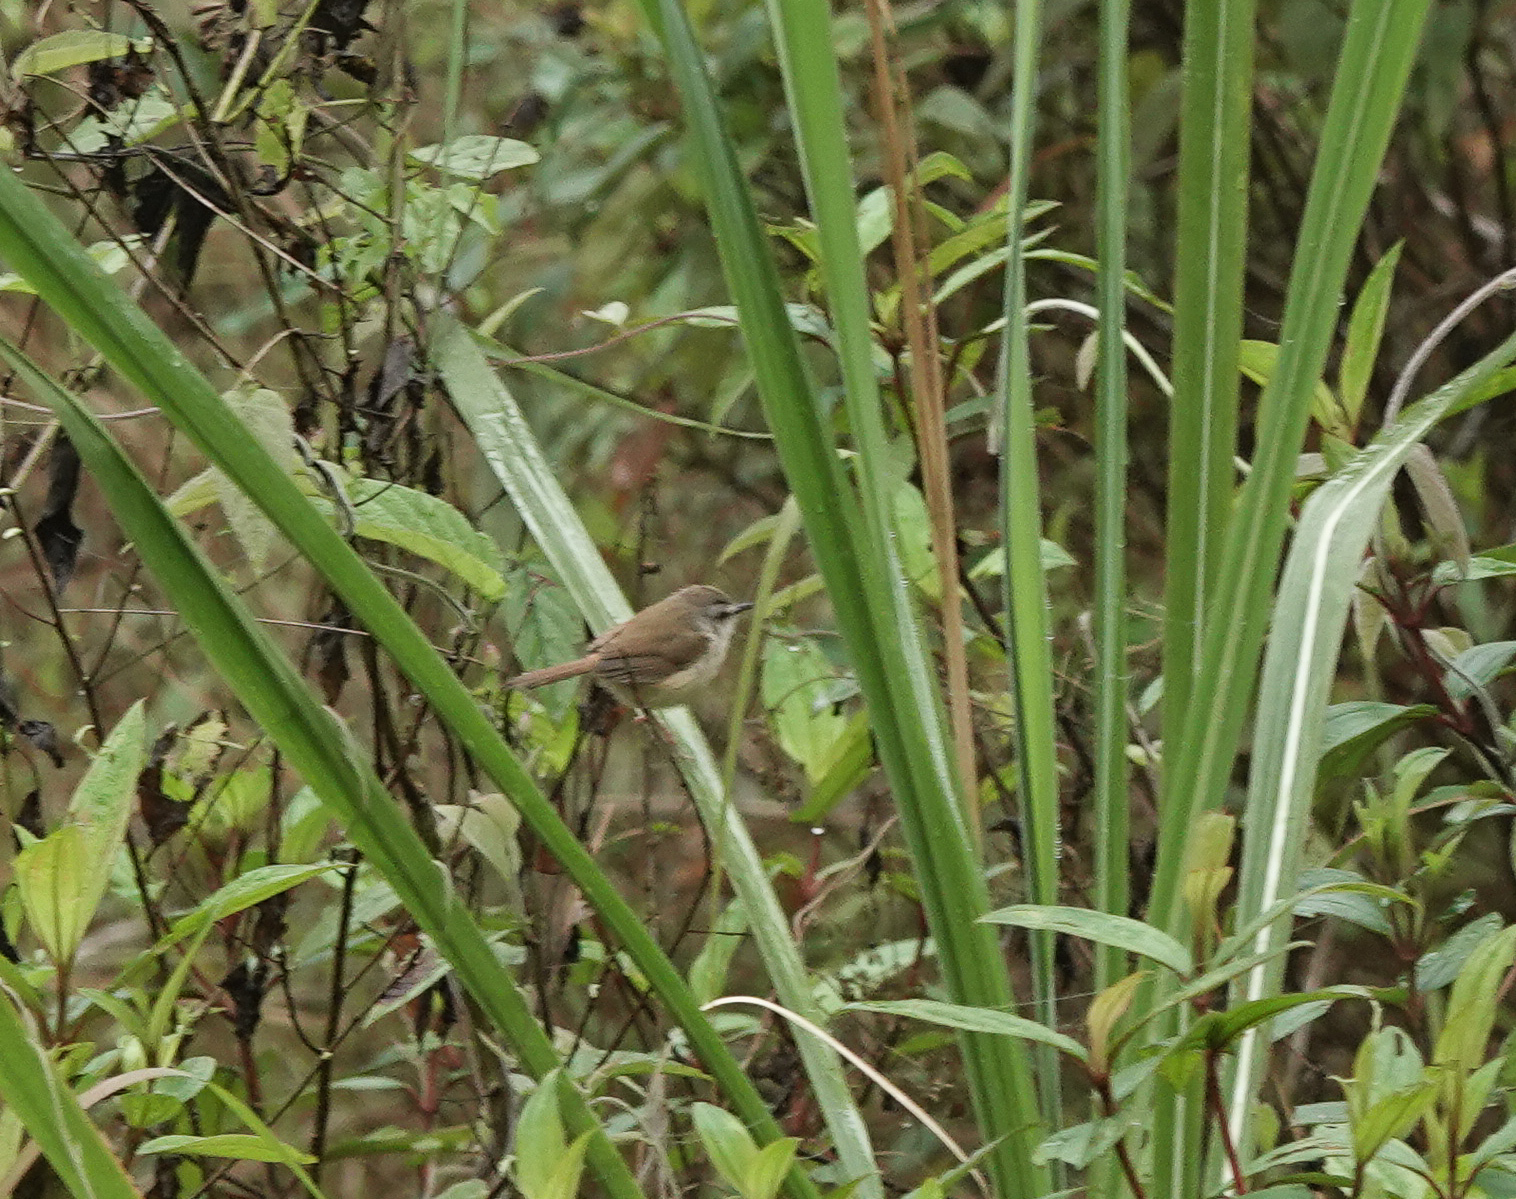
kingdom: Animalia
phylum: Chordata
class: Aves
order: Passeriformes
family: Cisticolidae
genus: Prinia
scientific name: Prinia rufescens
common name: Rufescent prinia
